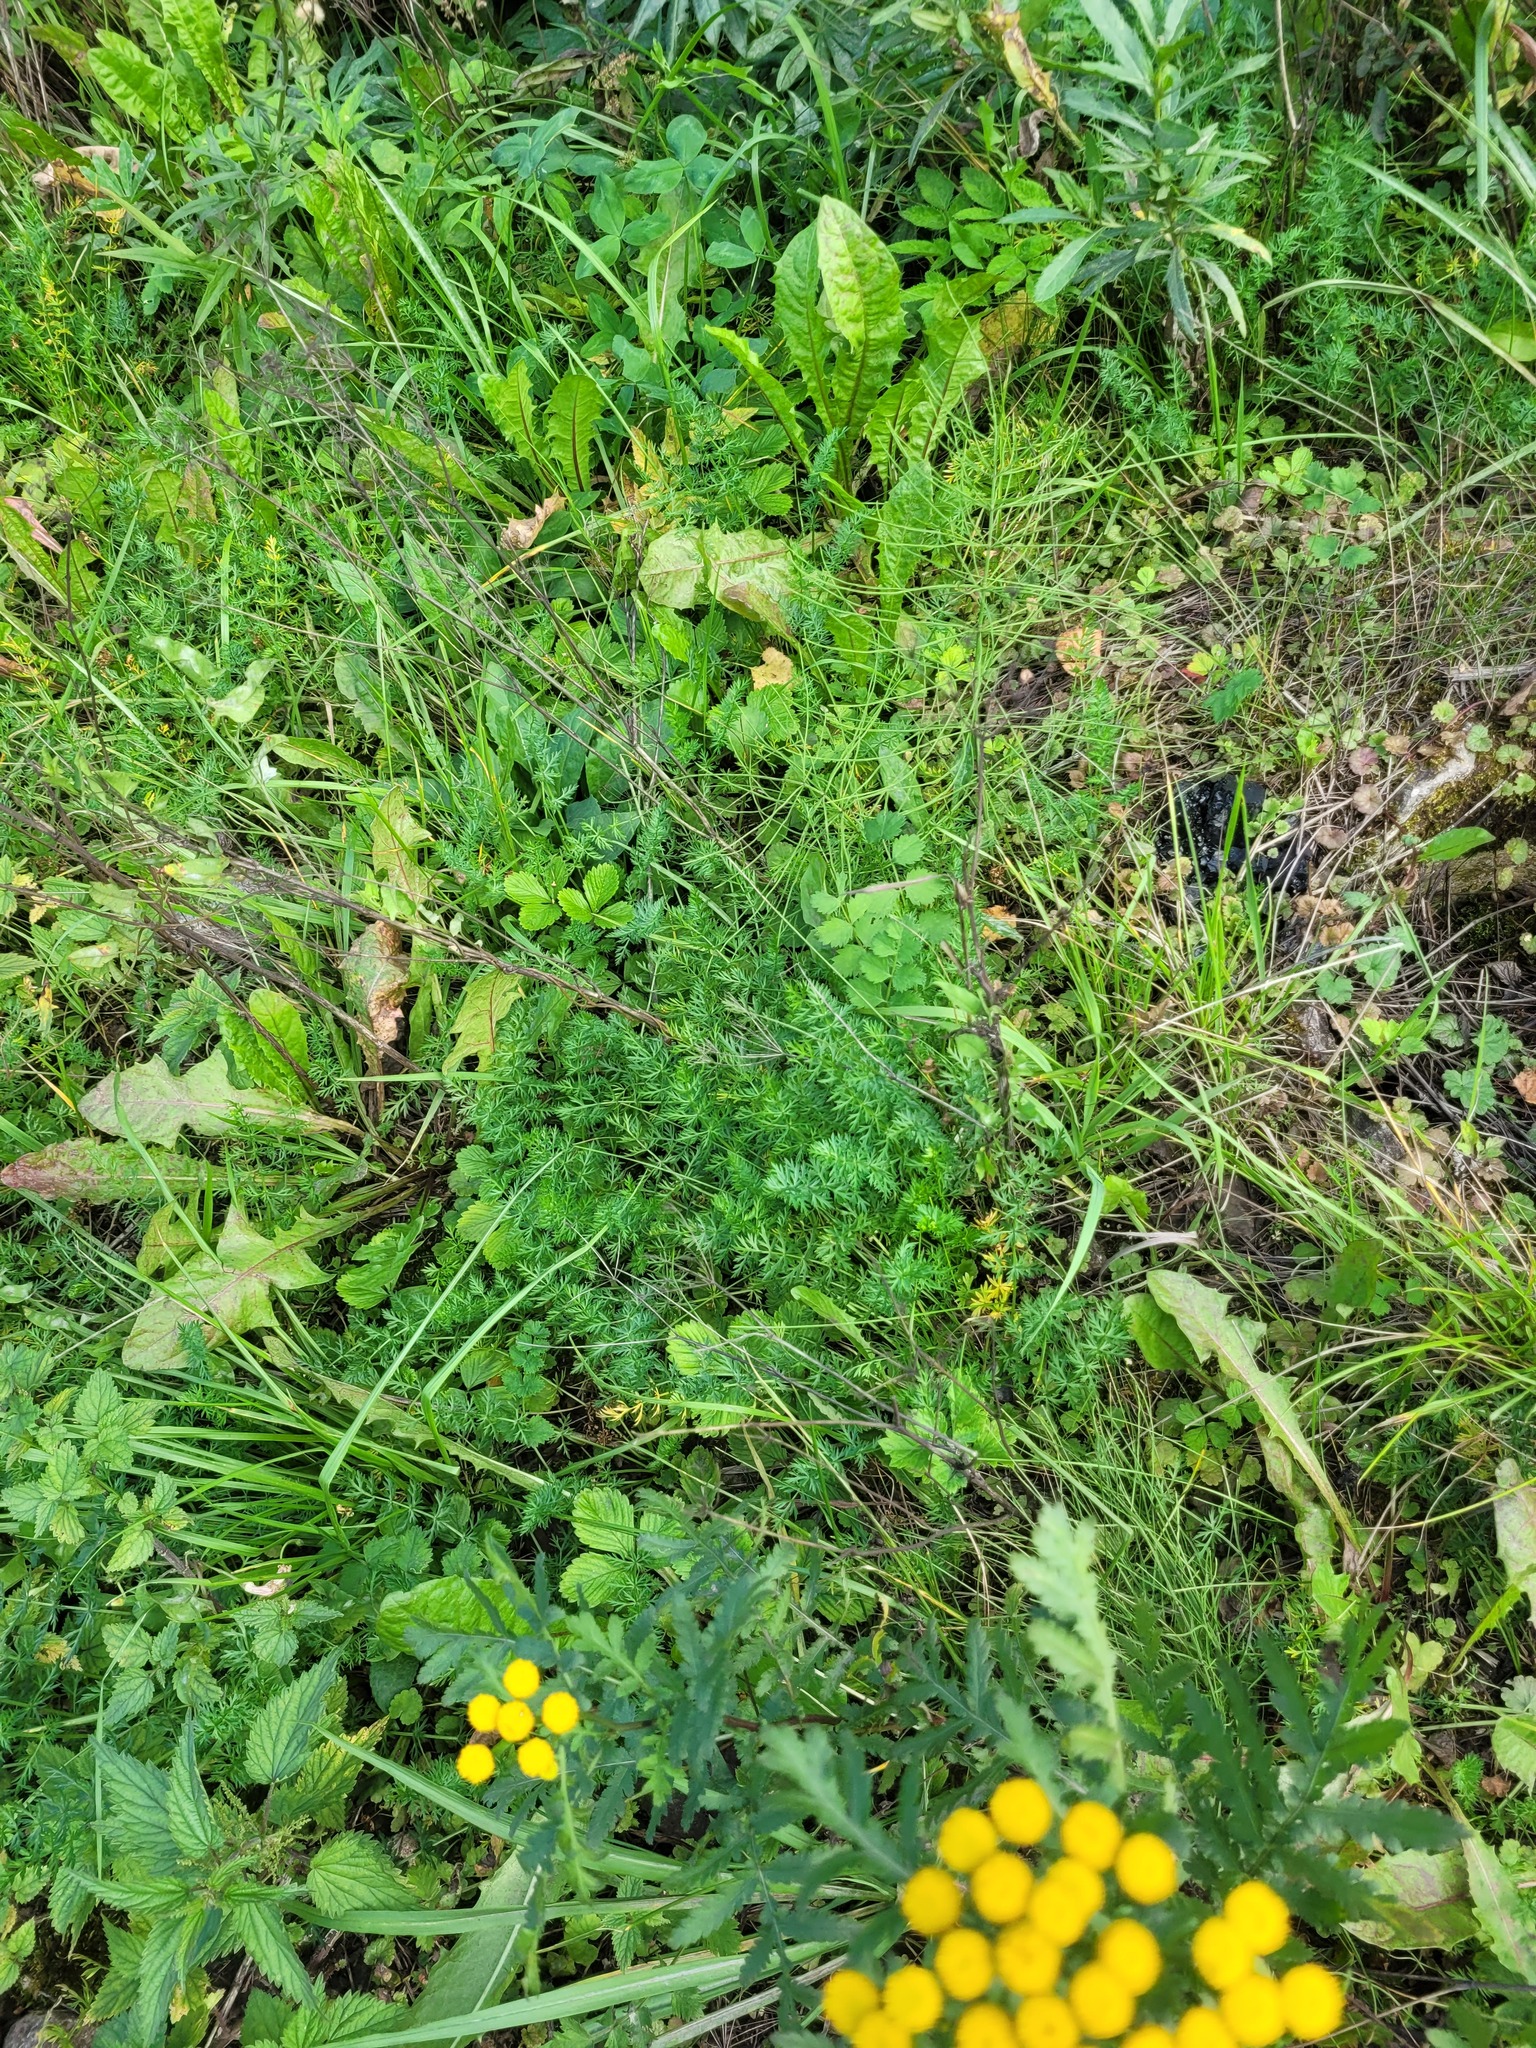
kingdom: Plantae
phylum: Tracheophyta
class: Magnoliopsida
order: Apiales
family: Apiaceae
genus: Carum
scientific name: Carum carvi
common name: Caraway
